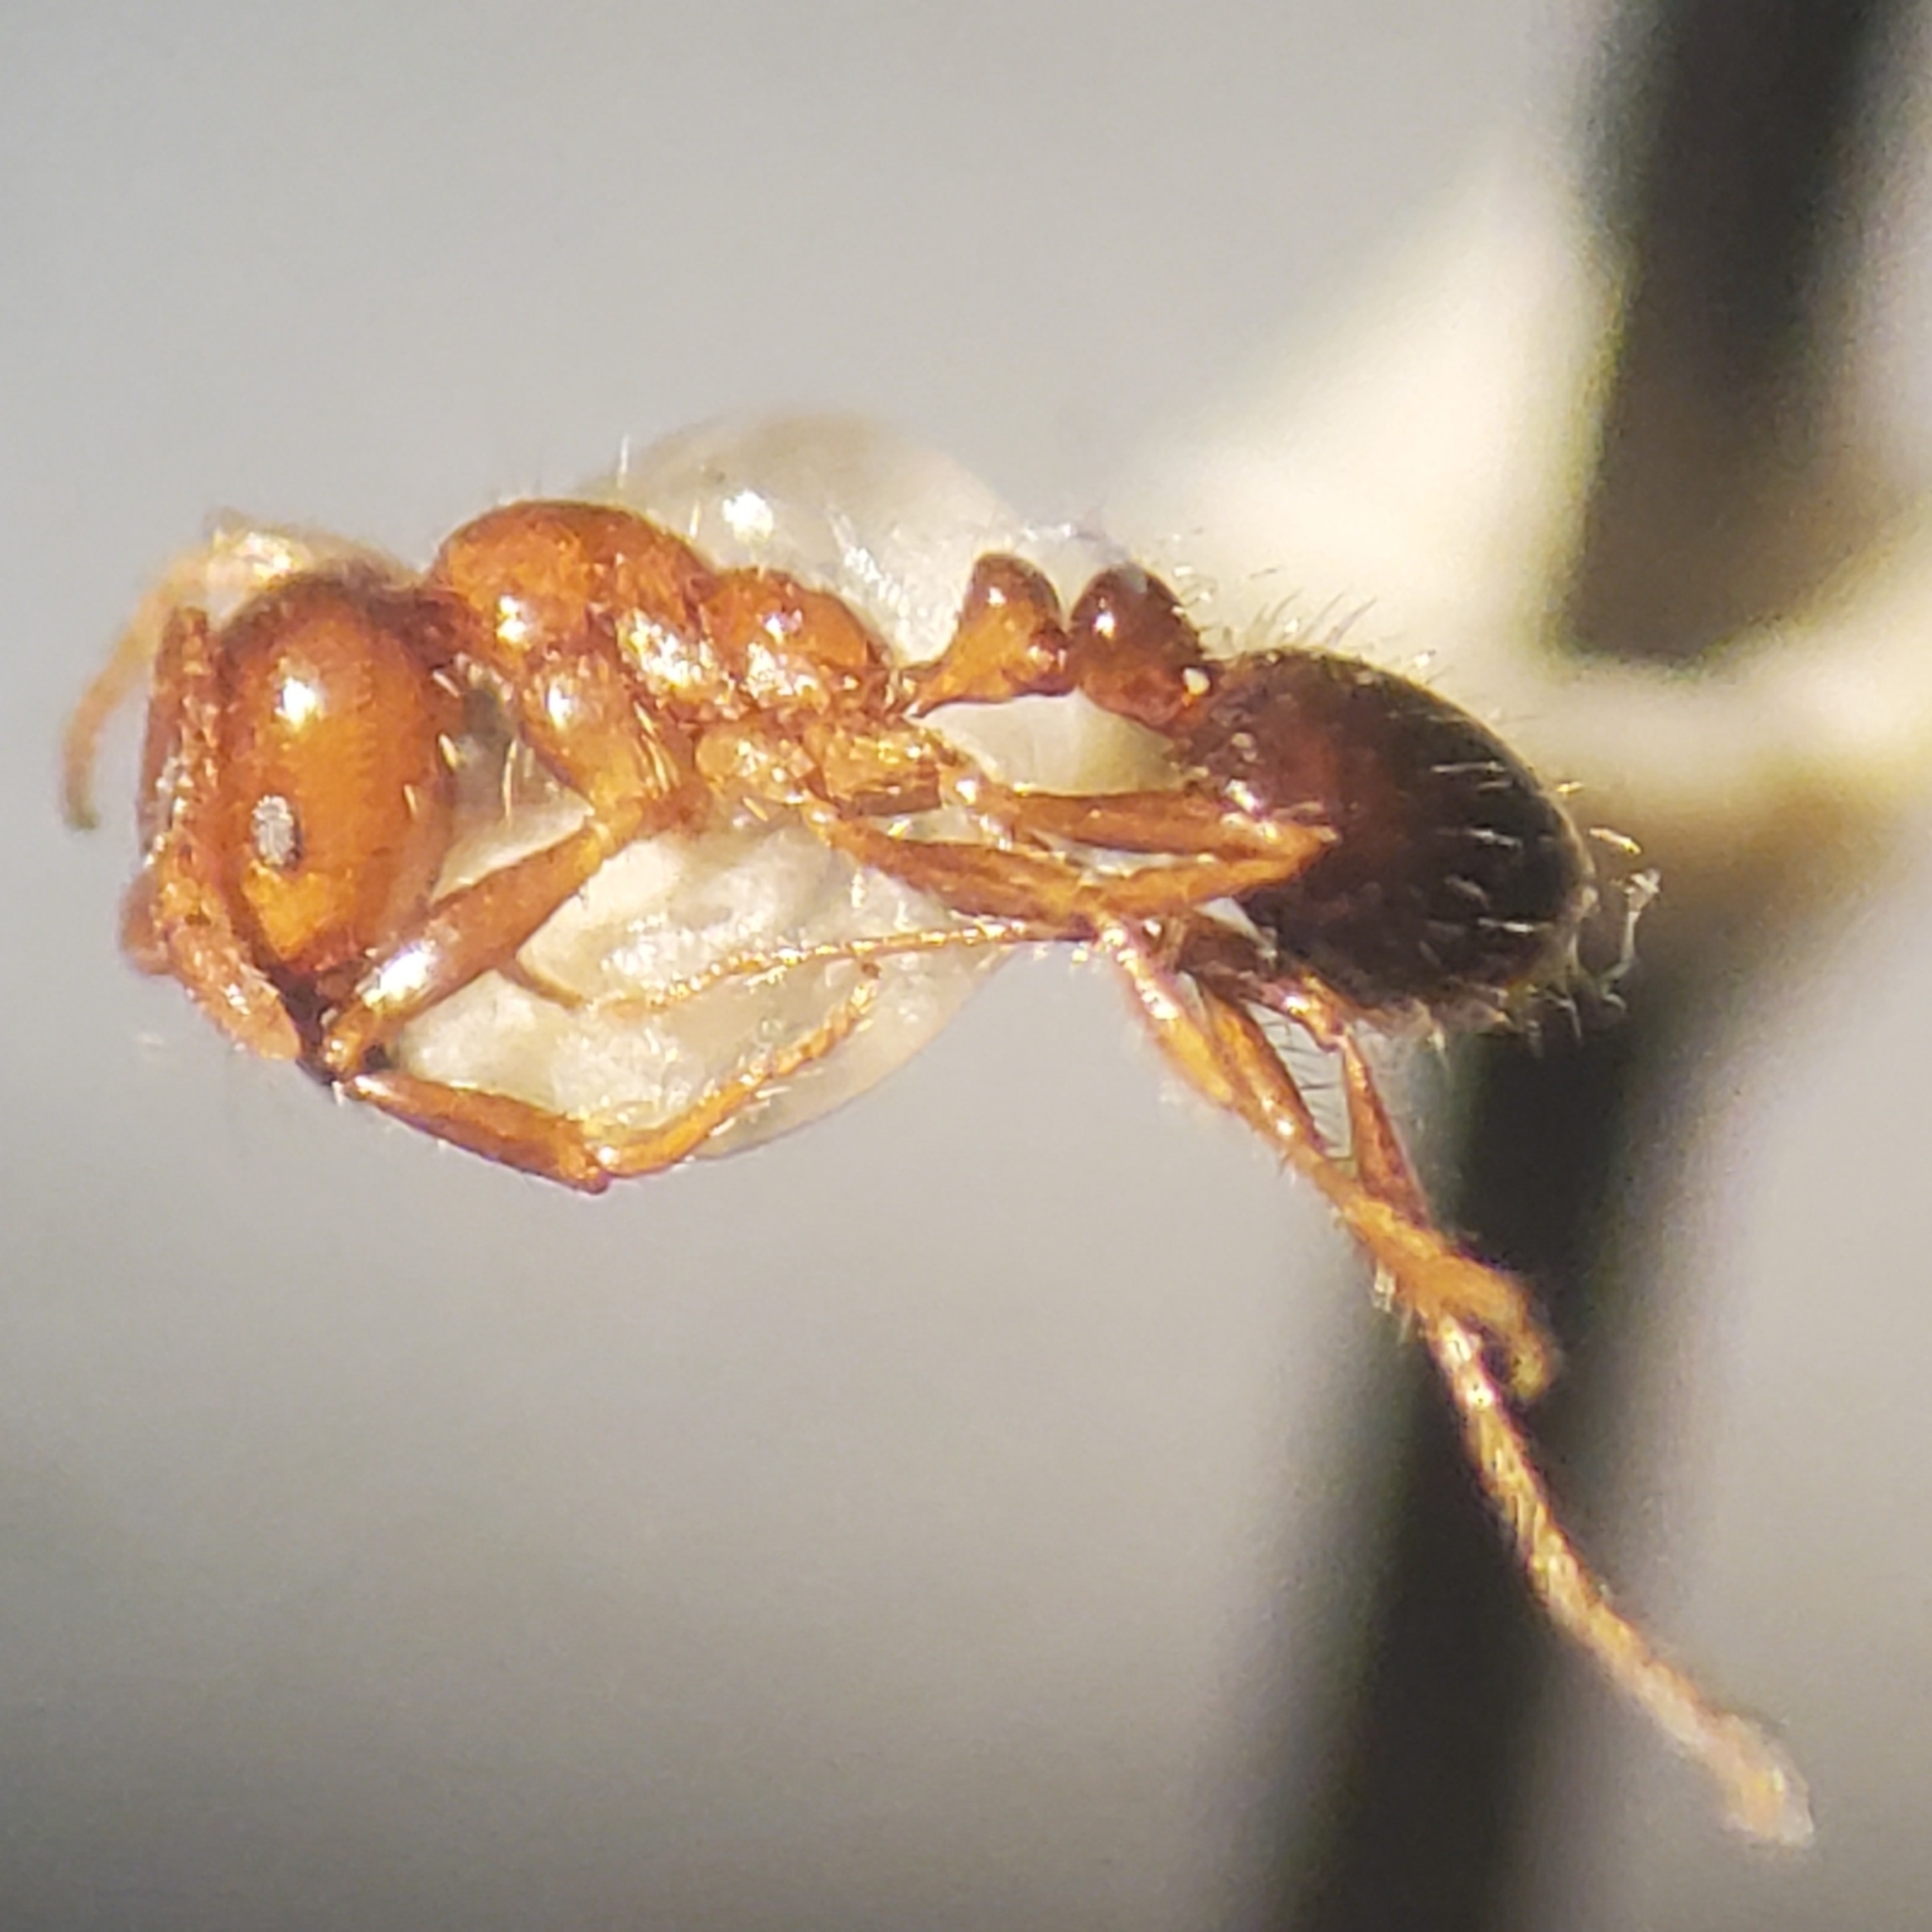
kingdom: Animalia
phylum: Arthropoda
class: Insecta
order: Hymenoptera
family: Formicidae
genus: Solenopsis
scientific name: Solenopsis xyloni
